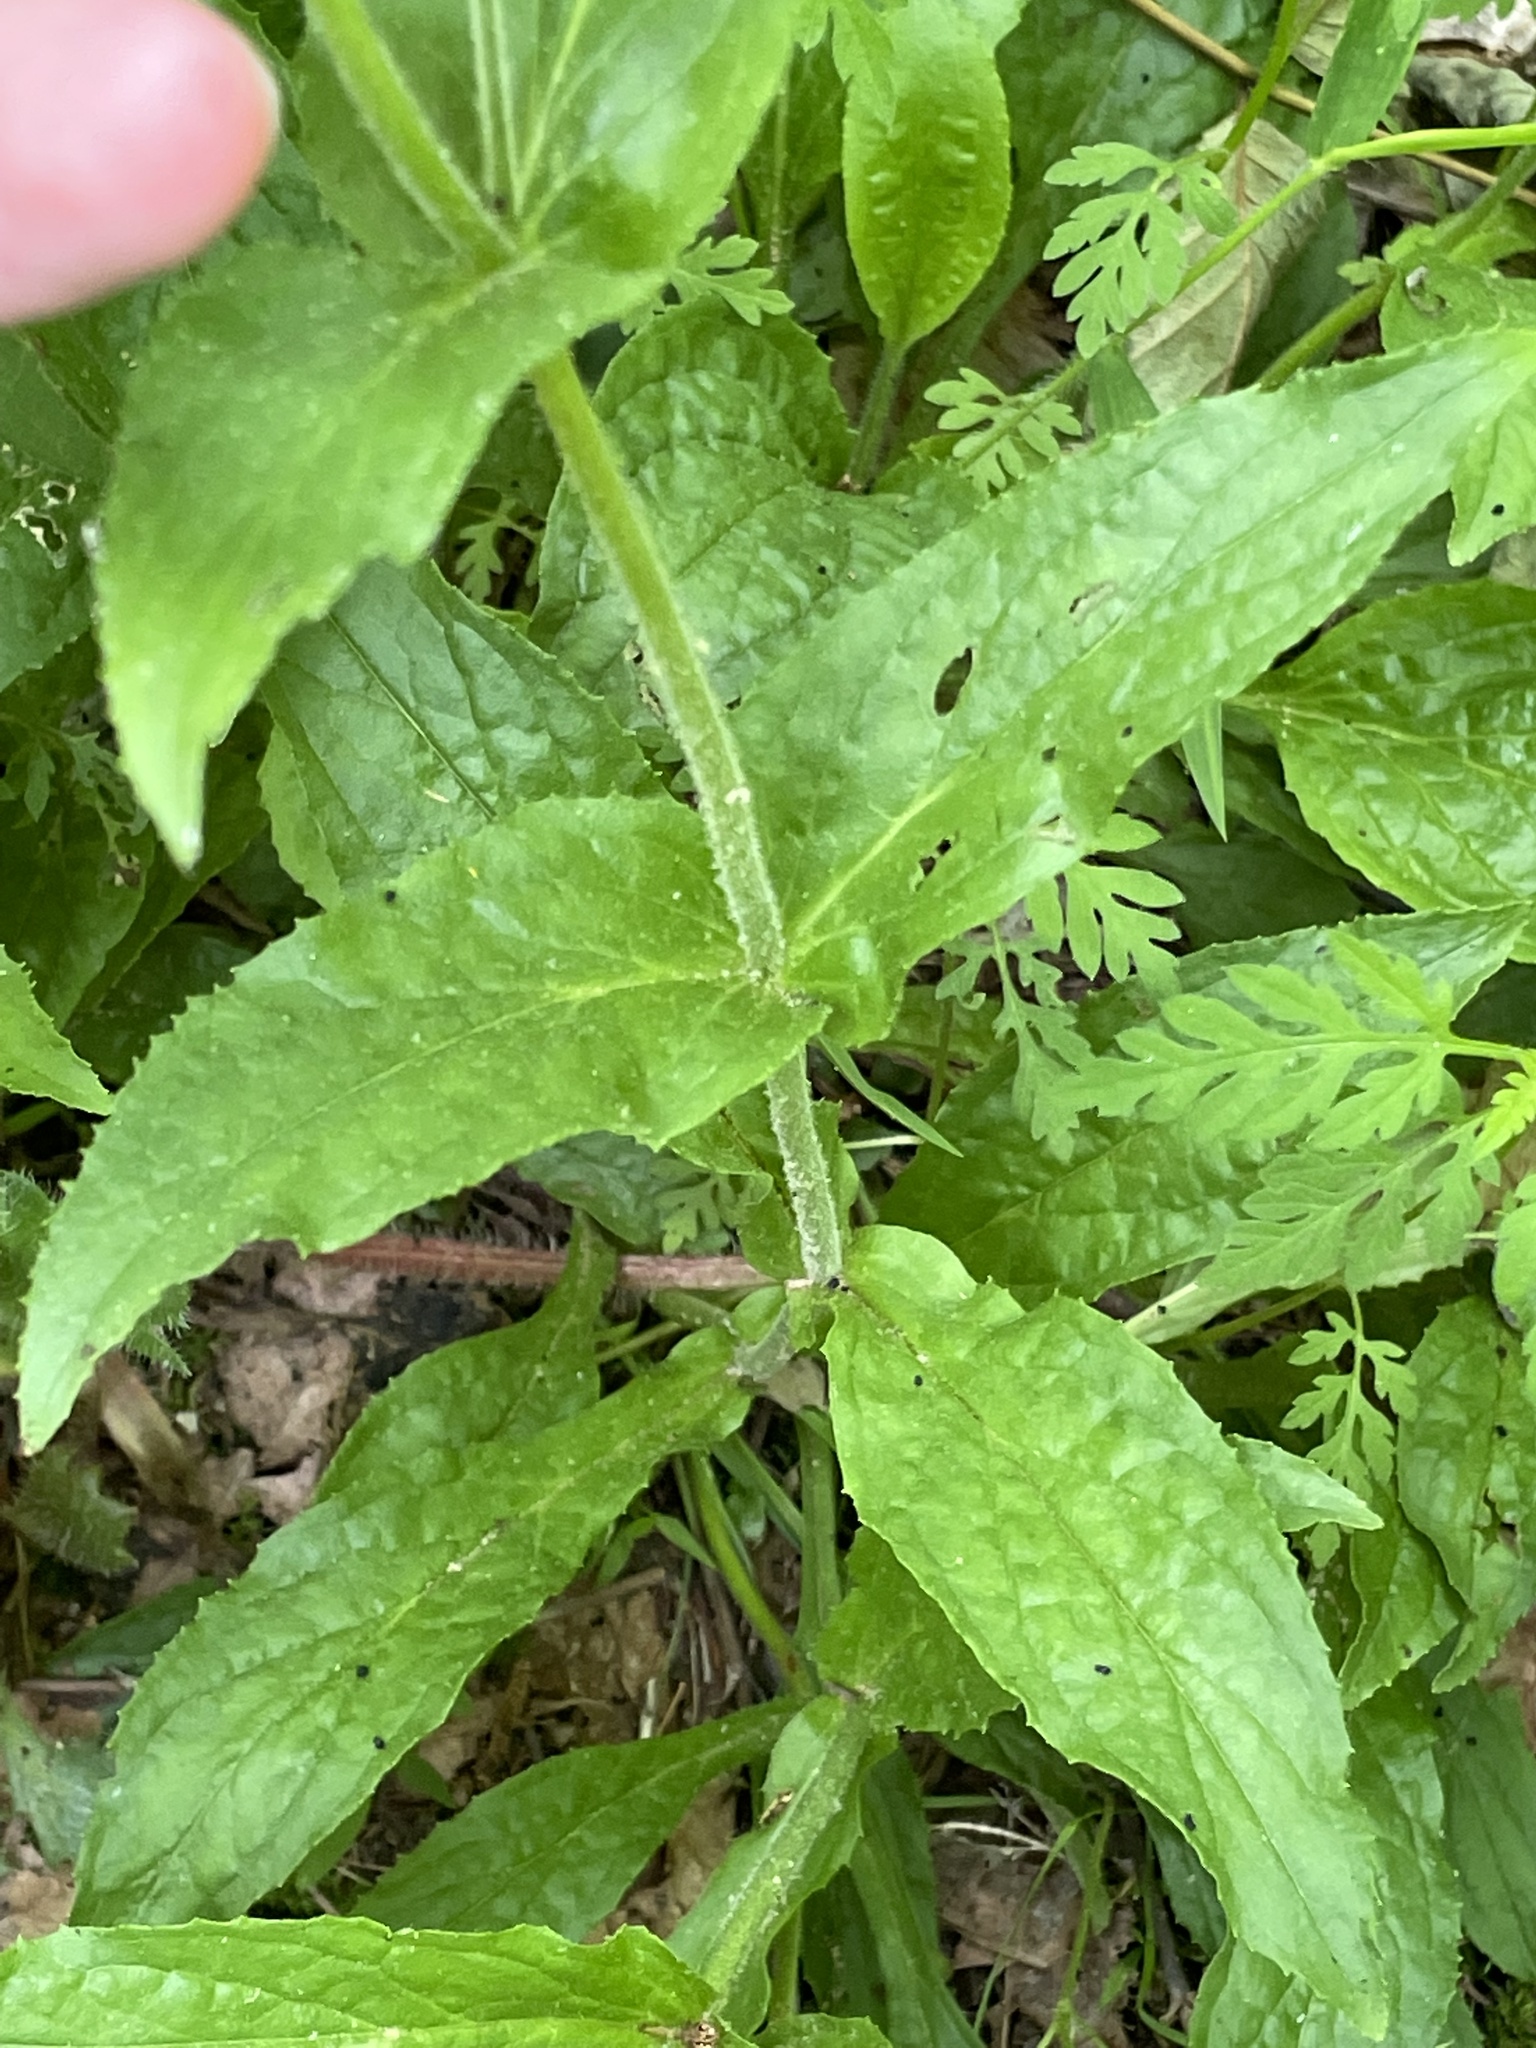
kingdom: Plantae
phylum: Tracheophyta
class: Magnoliopsida
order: Lamiales
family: Plantaginaceae
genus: Penstemon
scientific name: Penstemon smallii
